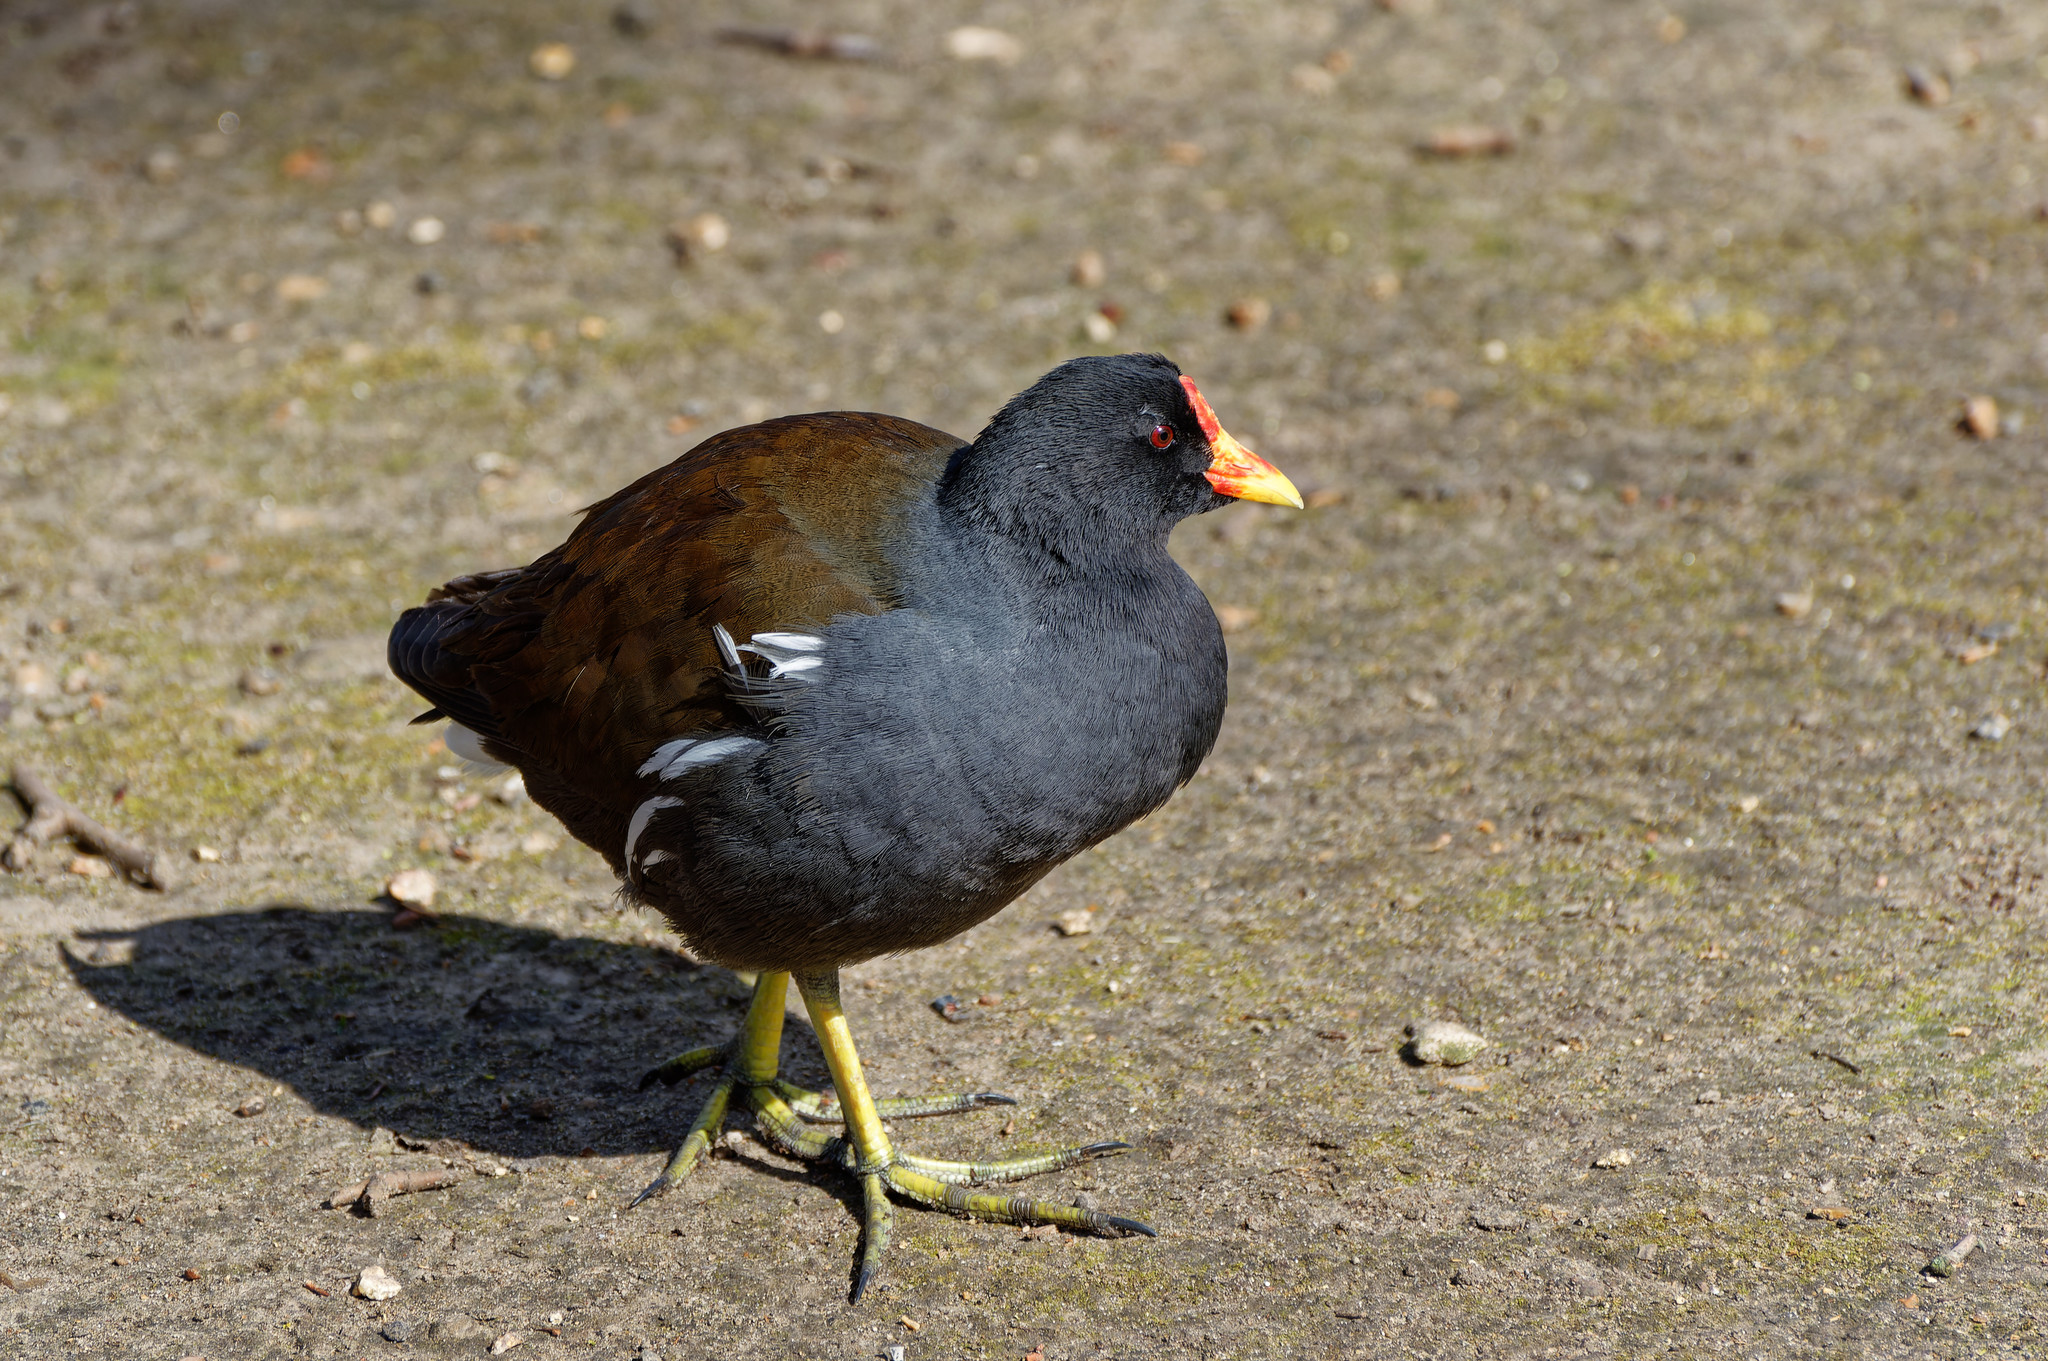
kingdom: Animalia
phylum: Chordata
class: Aves
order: Gruiformes
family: Rallidae
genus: Gallinula
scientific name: Gallinula chloropus
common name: Common moorhen
